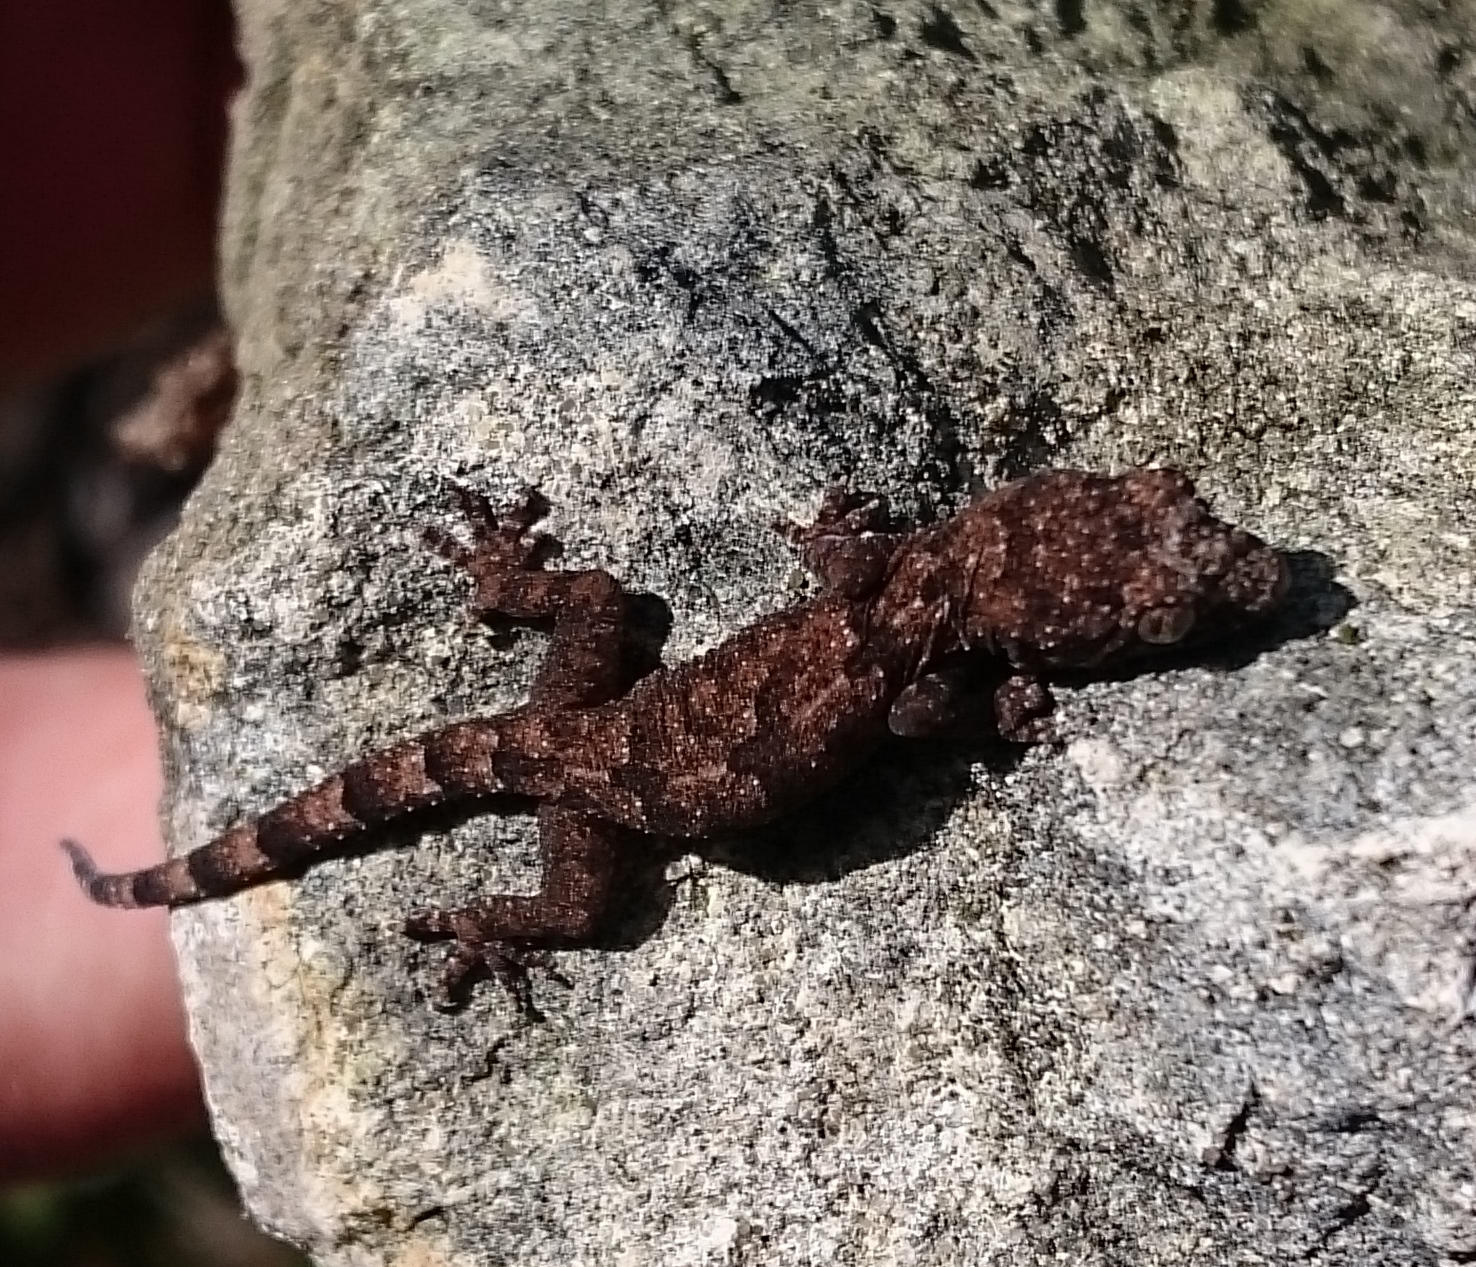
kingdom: Animalia
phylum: Chordata
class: Squamata
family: Gekkonidae
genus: Hemidactylus
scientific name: Hemidactylus mabouia
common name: House gecko
